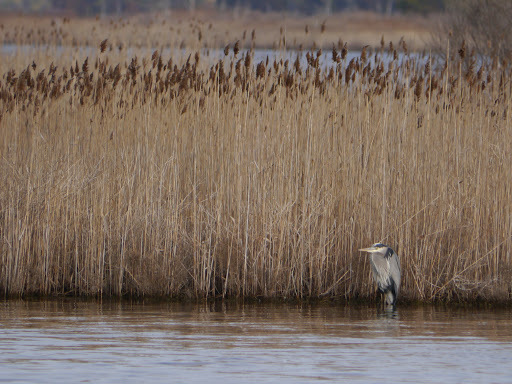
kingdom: Animalia
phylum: Chordata
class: Aves
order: Pelecaniformes
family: Ardeidae
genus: Ardea
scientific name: Ardea herodias
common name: Great blue heron
